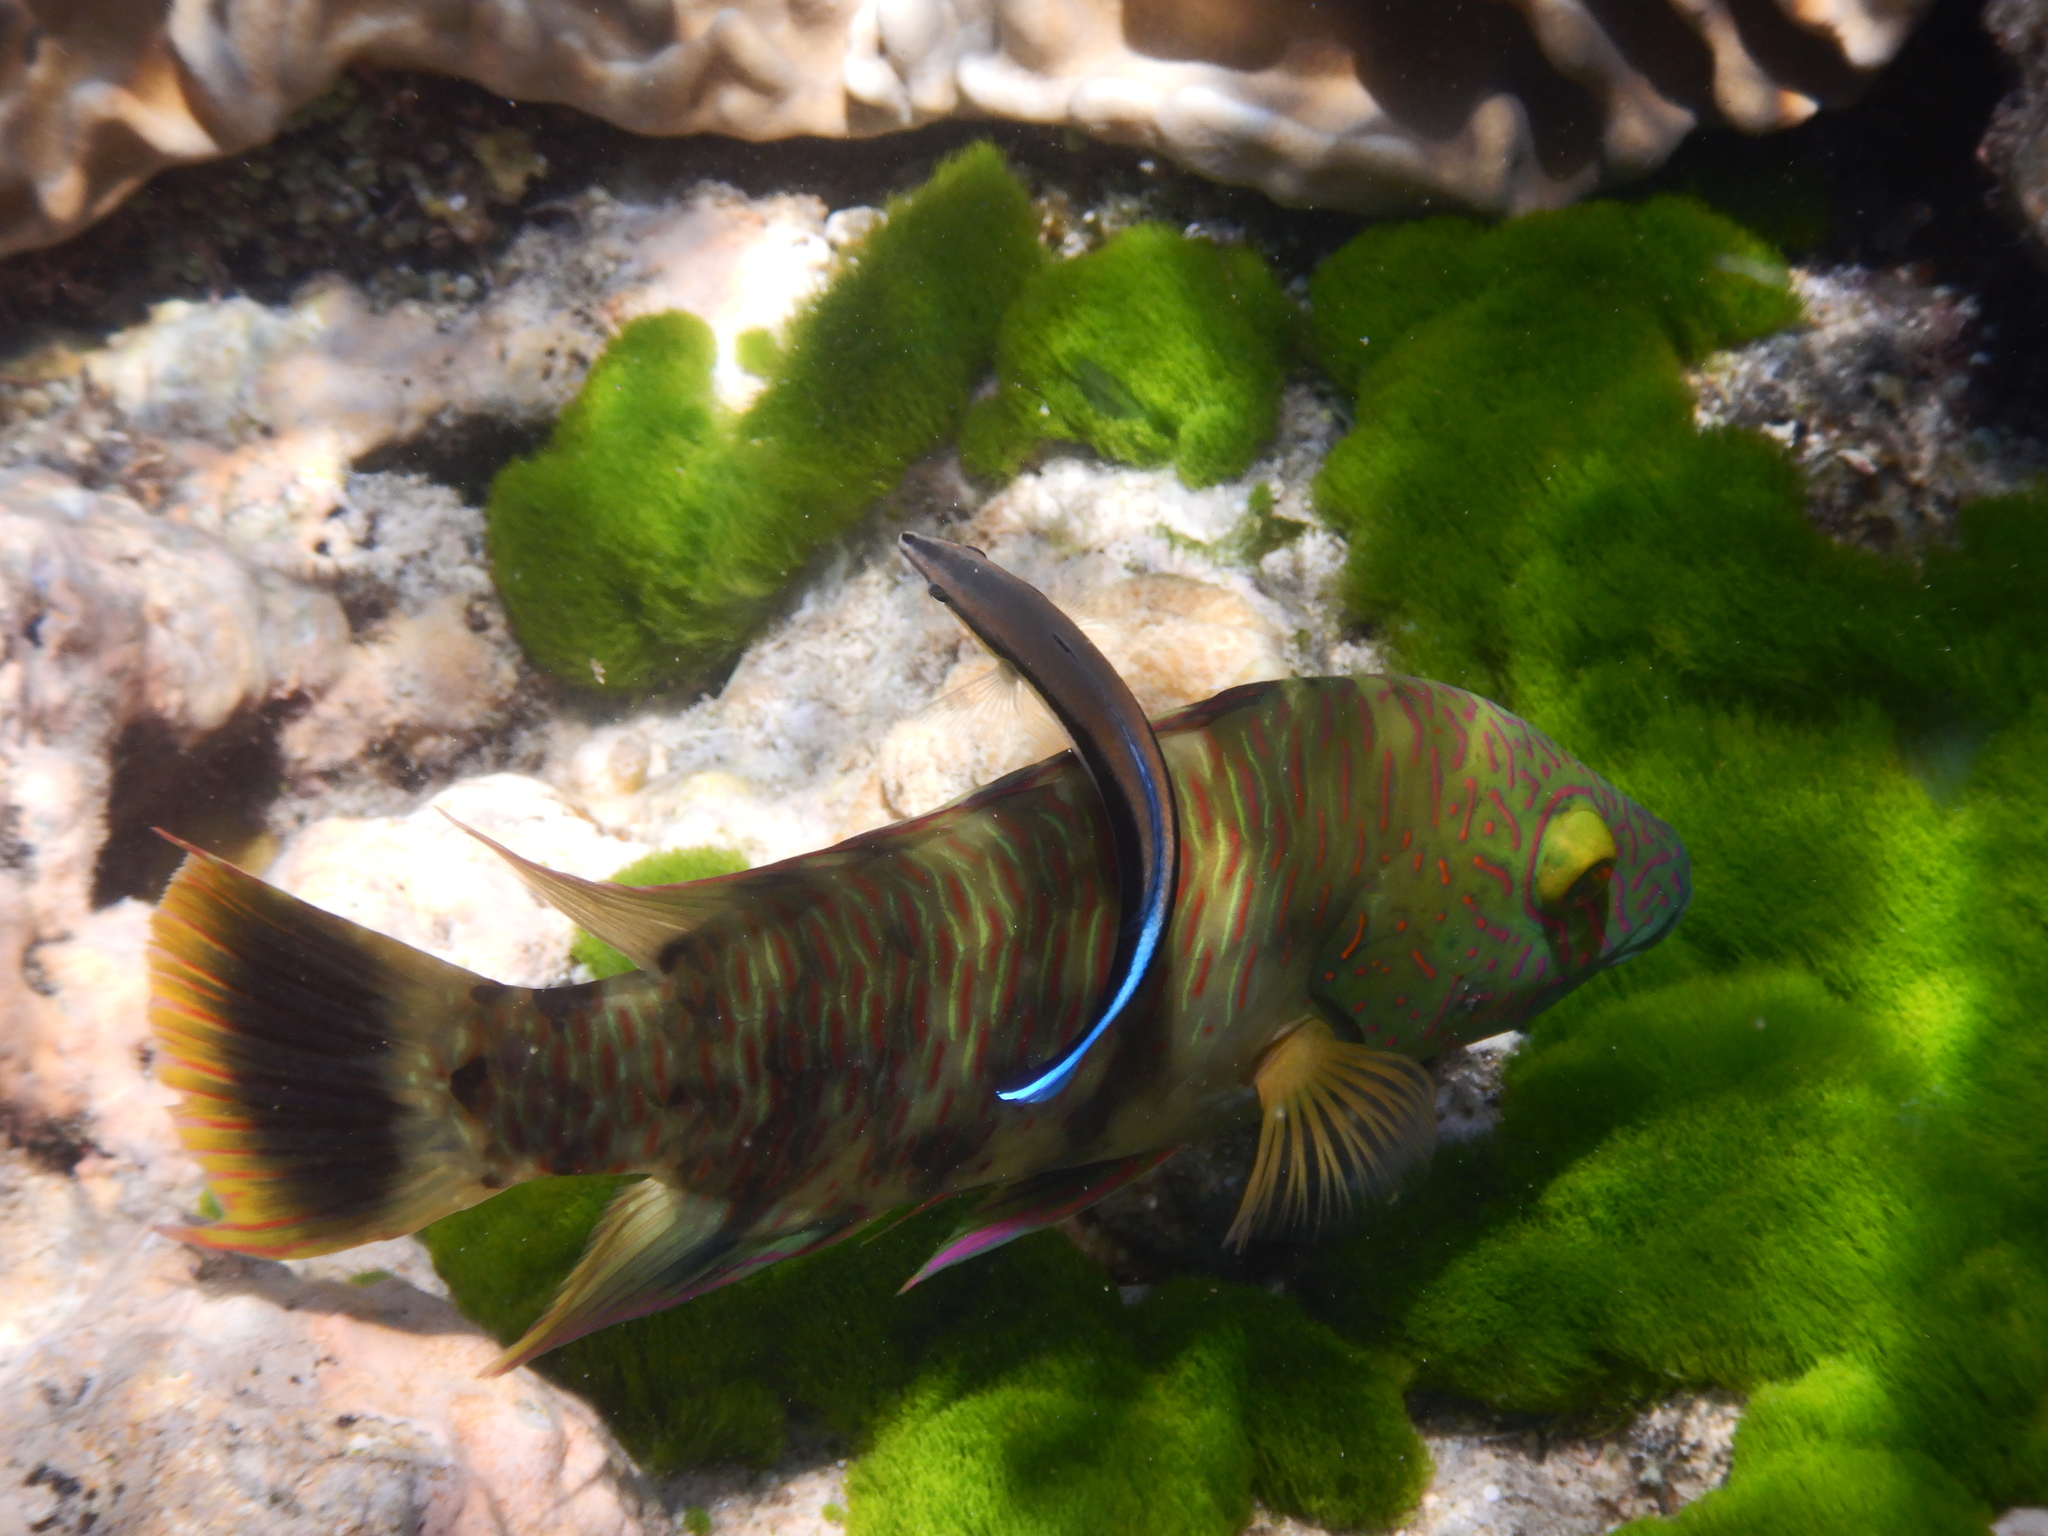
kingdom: Animalia
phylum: Chordata
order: Perciformes
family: Labridae
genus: Cheilinus
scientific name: Cheilinus trilobatus
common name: Tripletail maori wrasse
